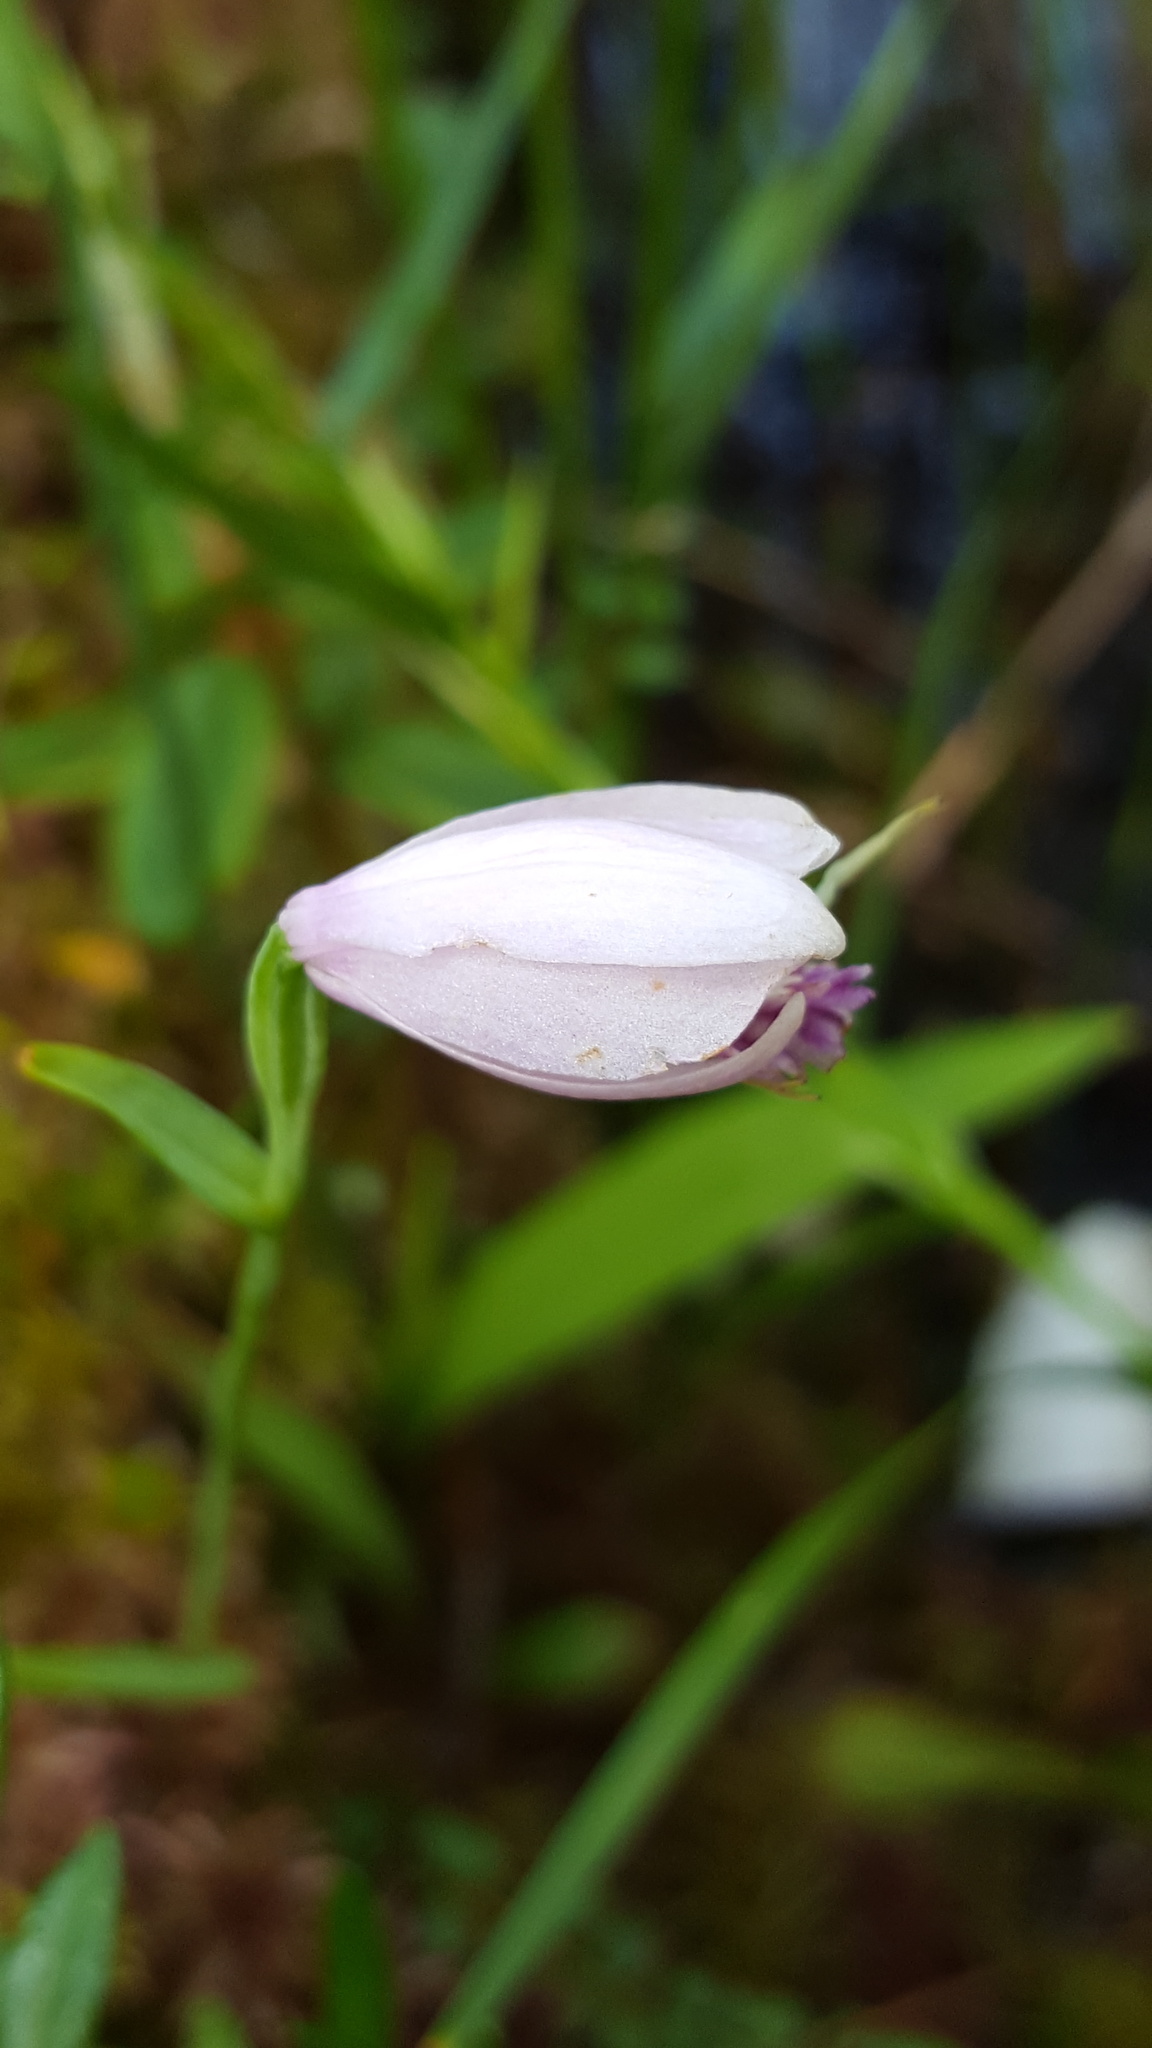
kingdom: Plantae
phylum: Tracheophyta
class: Liliopsida
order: Asparagales
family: Orchidaceae
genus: Pogonia
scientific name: Pogonia ophioglossoides
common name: Rose pogonia
